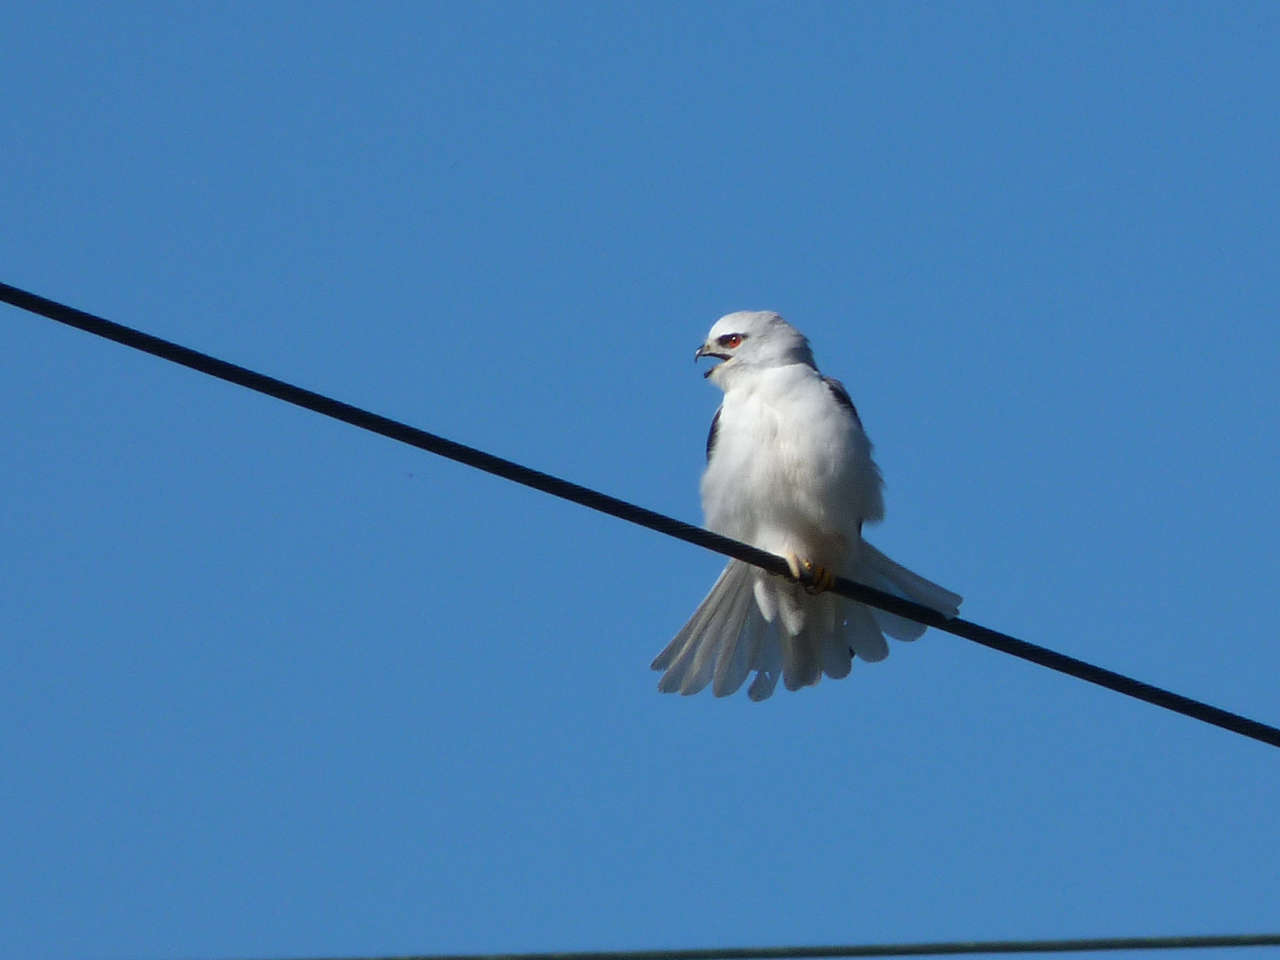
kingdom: Animalia
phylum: Chordata
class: Aves
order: Accipitriformes
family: Accipitridae
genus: Elanus
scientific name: Elanus axillaris
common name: Black-shouldered kite
